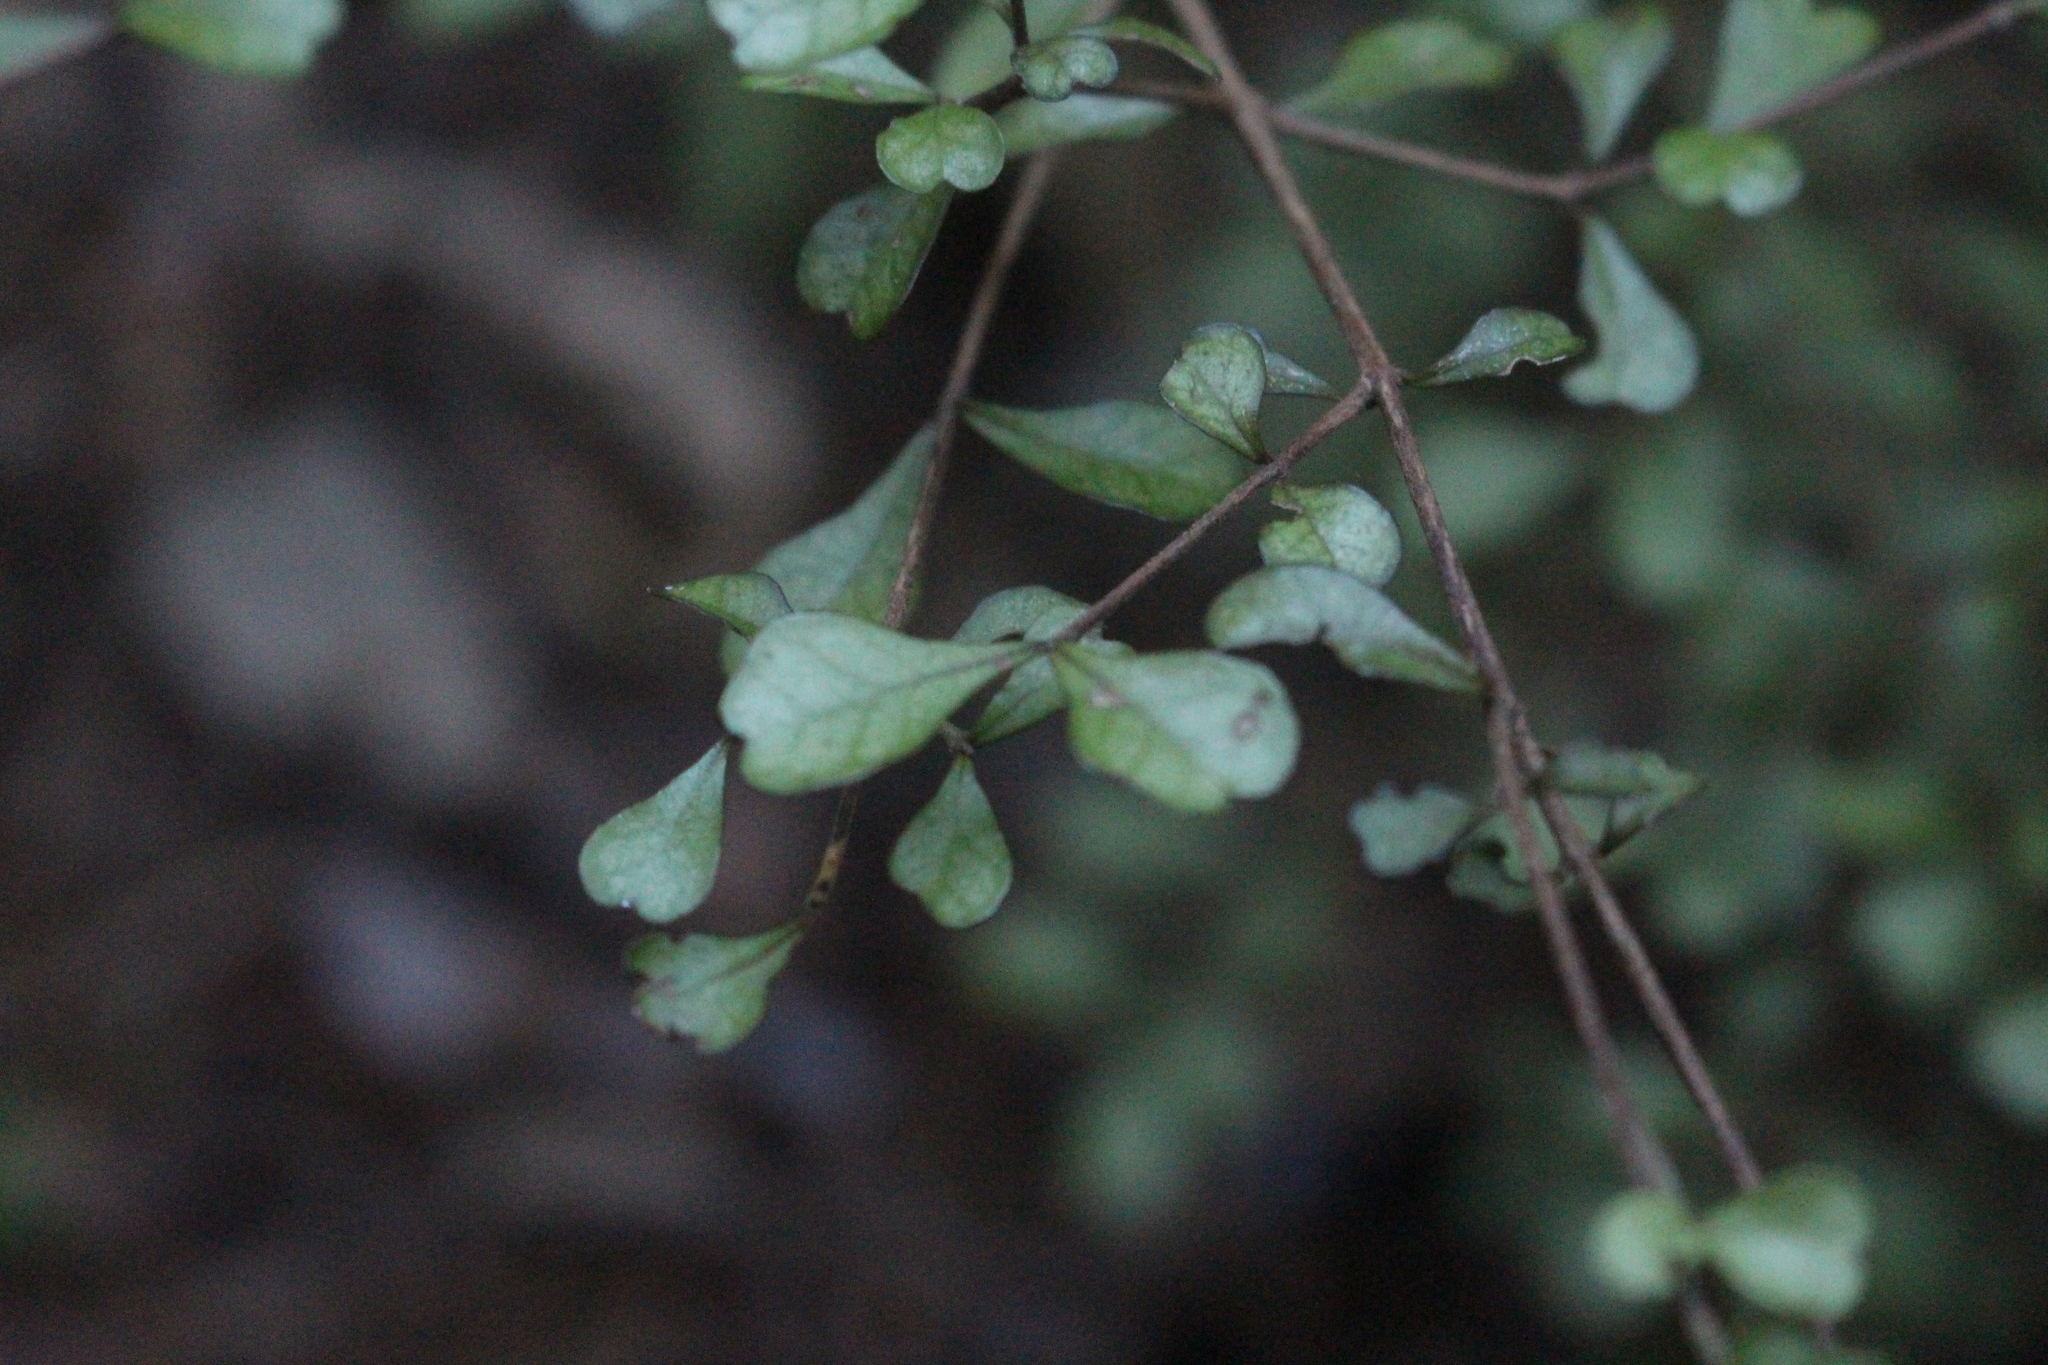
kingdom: Plantae
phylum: Tracheophyta
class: Magnoliopsida
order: Myrtales
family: Myrtaceae
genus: Lophomyrtus
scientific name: Lophomyrtus obcordata
